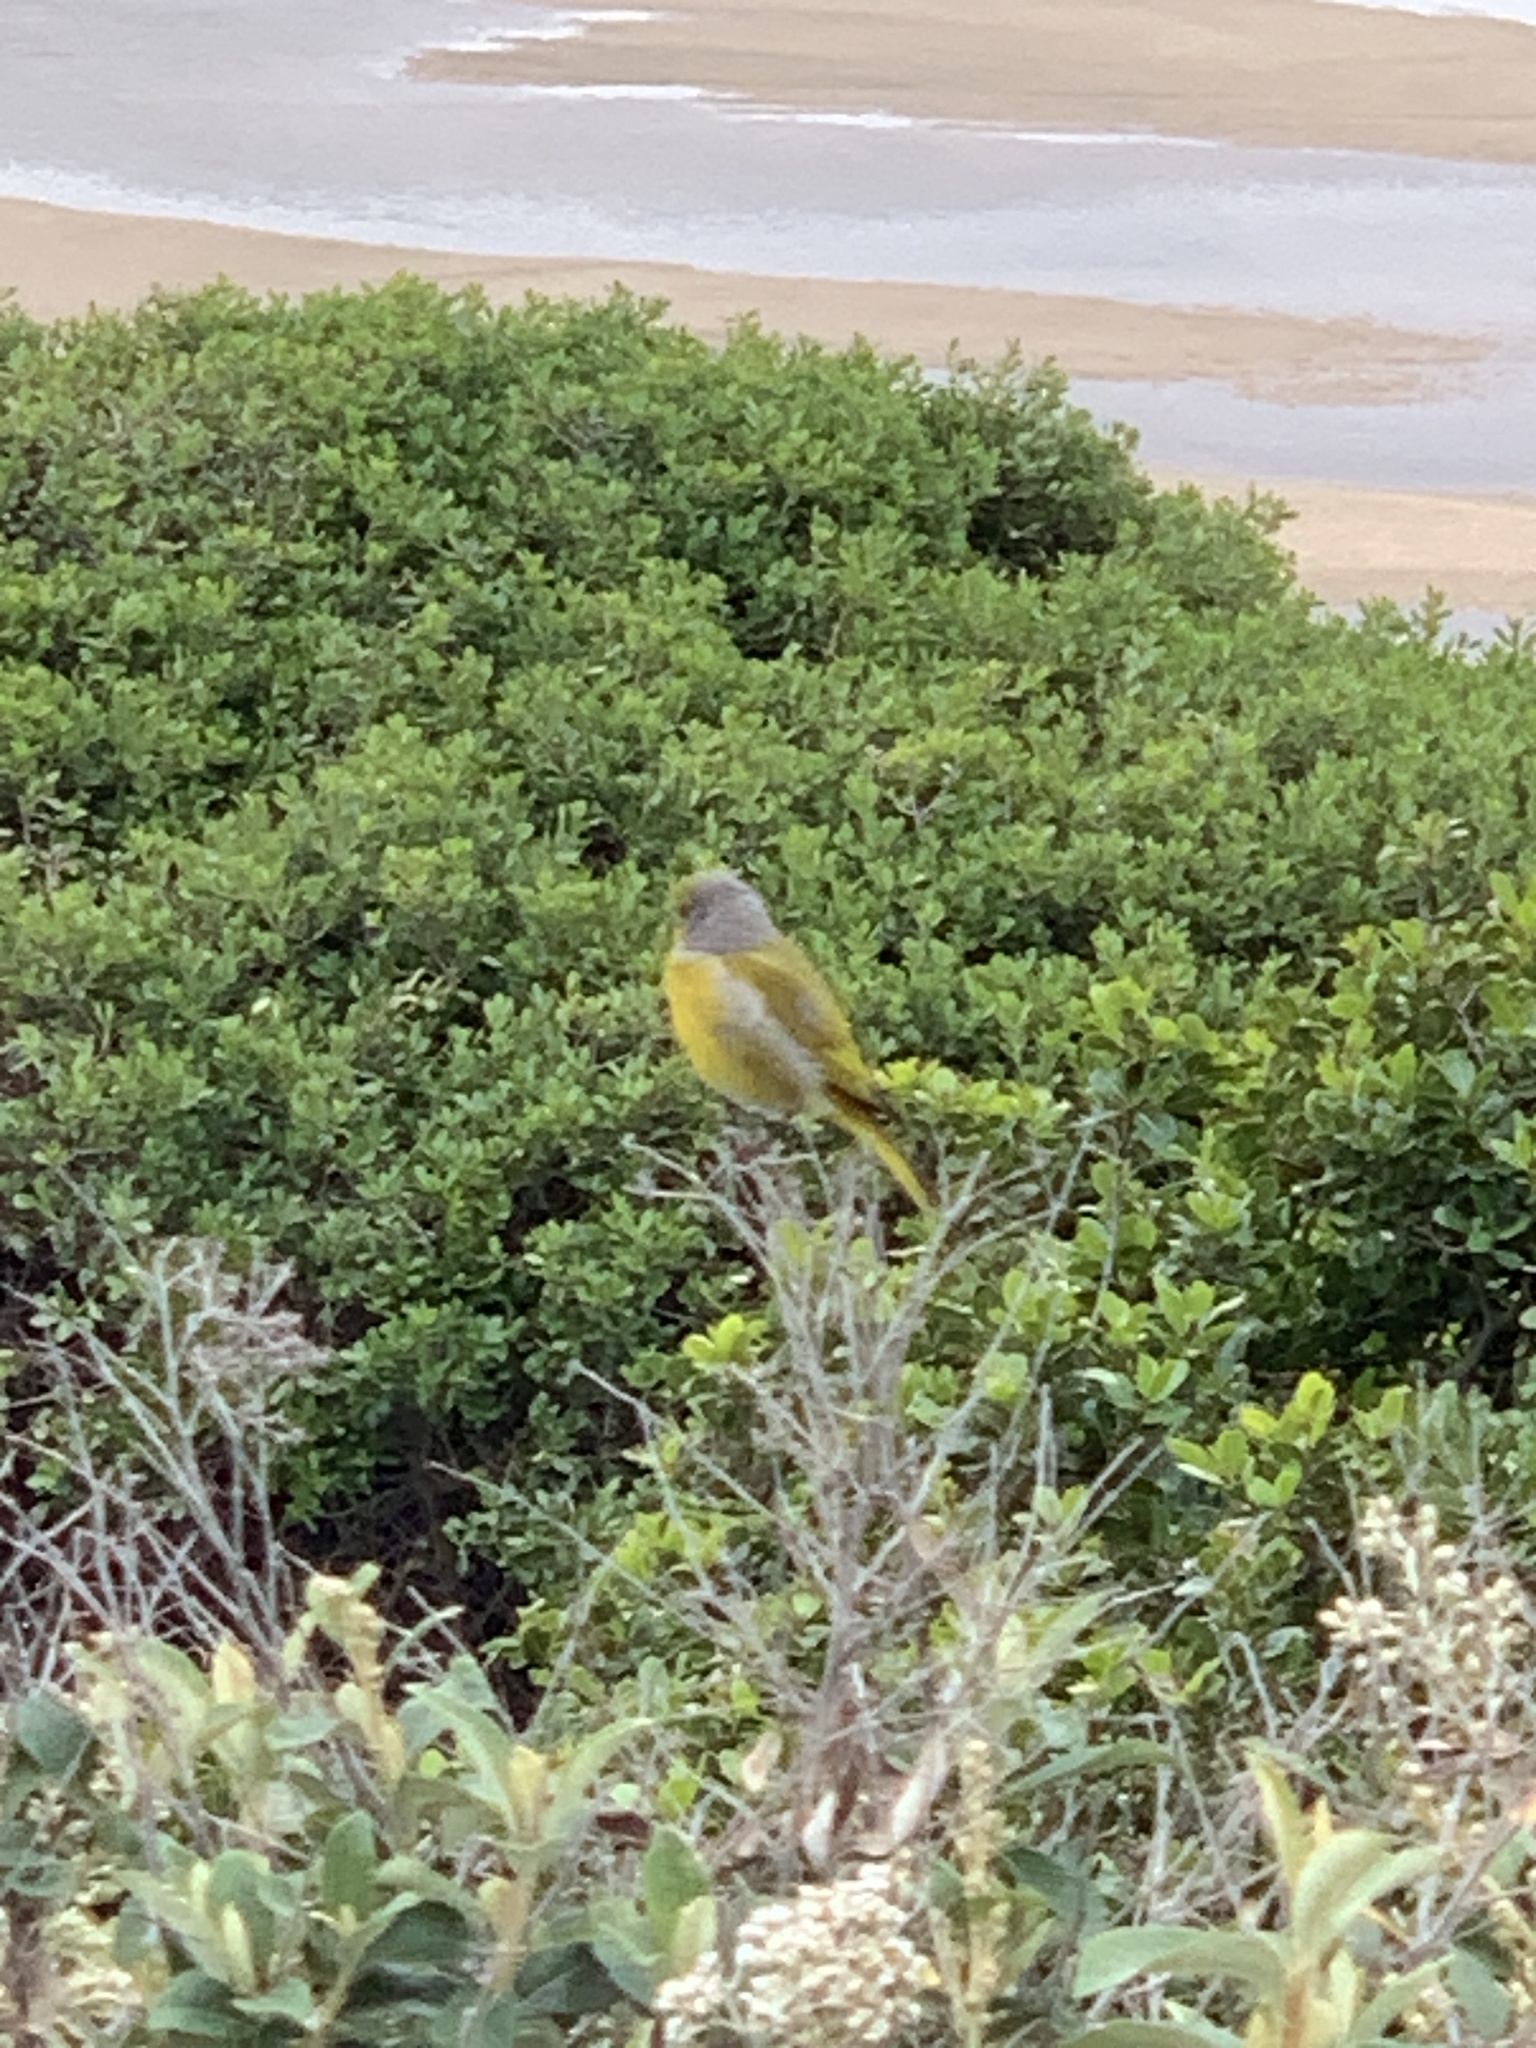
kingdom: Animalia
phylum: Chordata
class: Aves
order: Passeriformes
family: Fringillidae
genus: Serinus
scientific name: Serinus canicollis
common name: Cape canary
